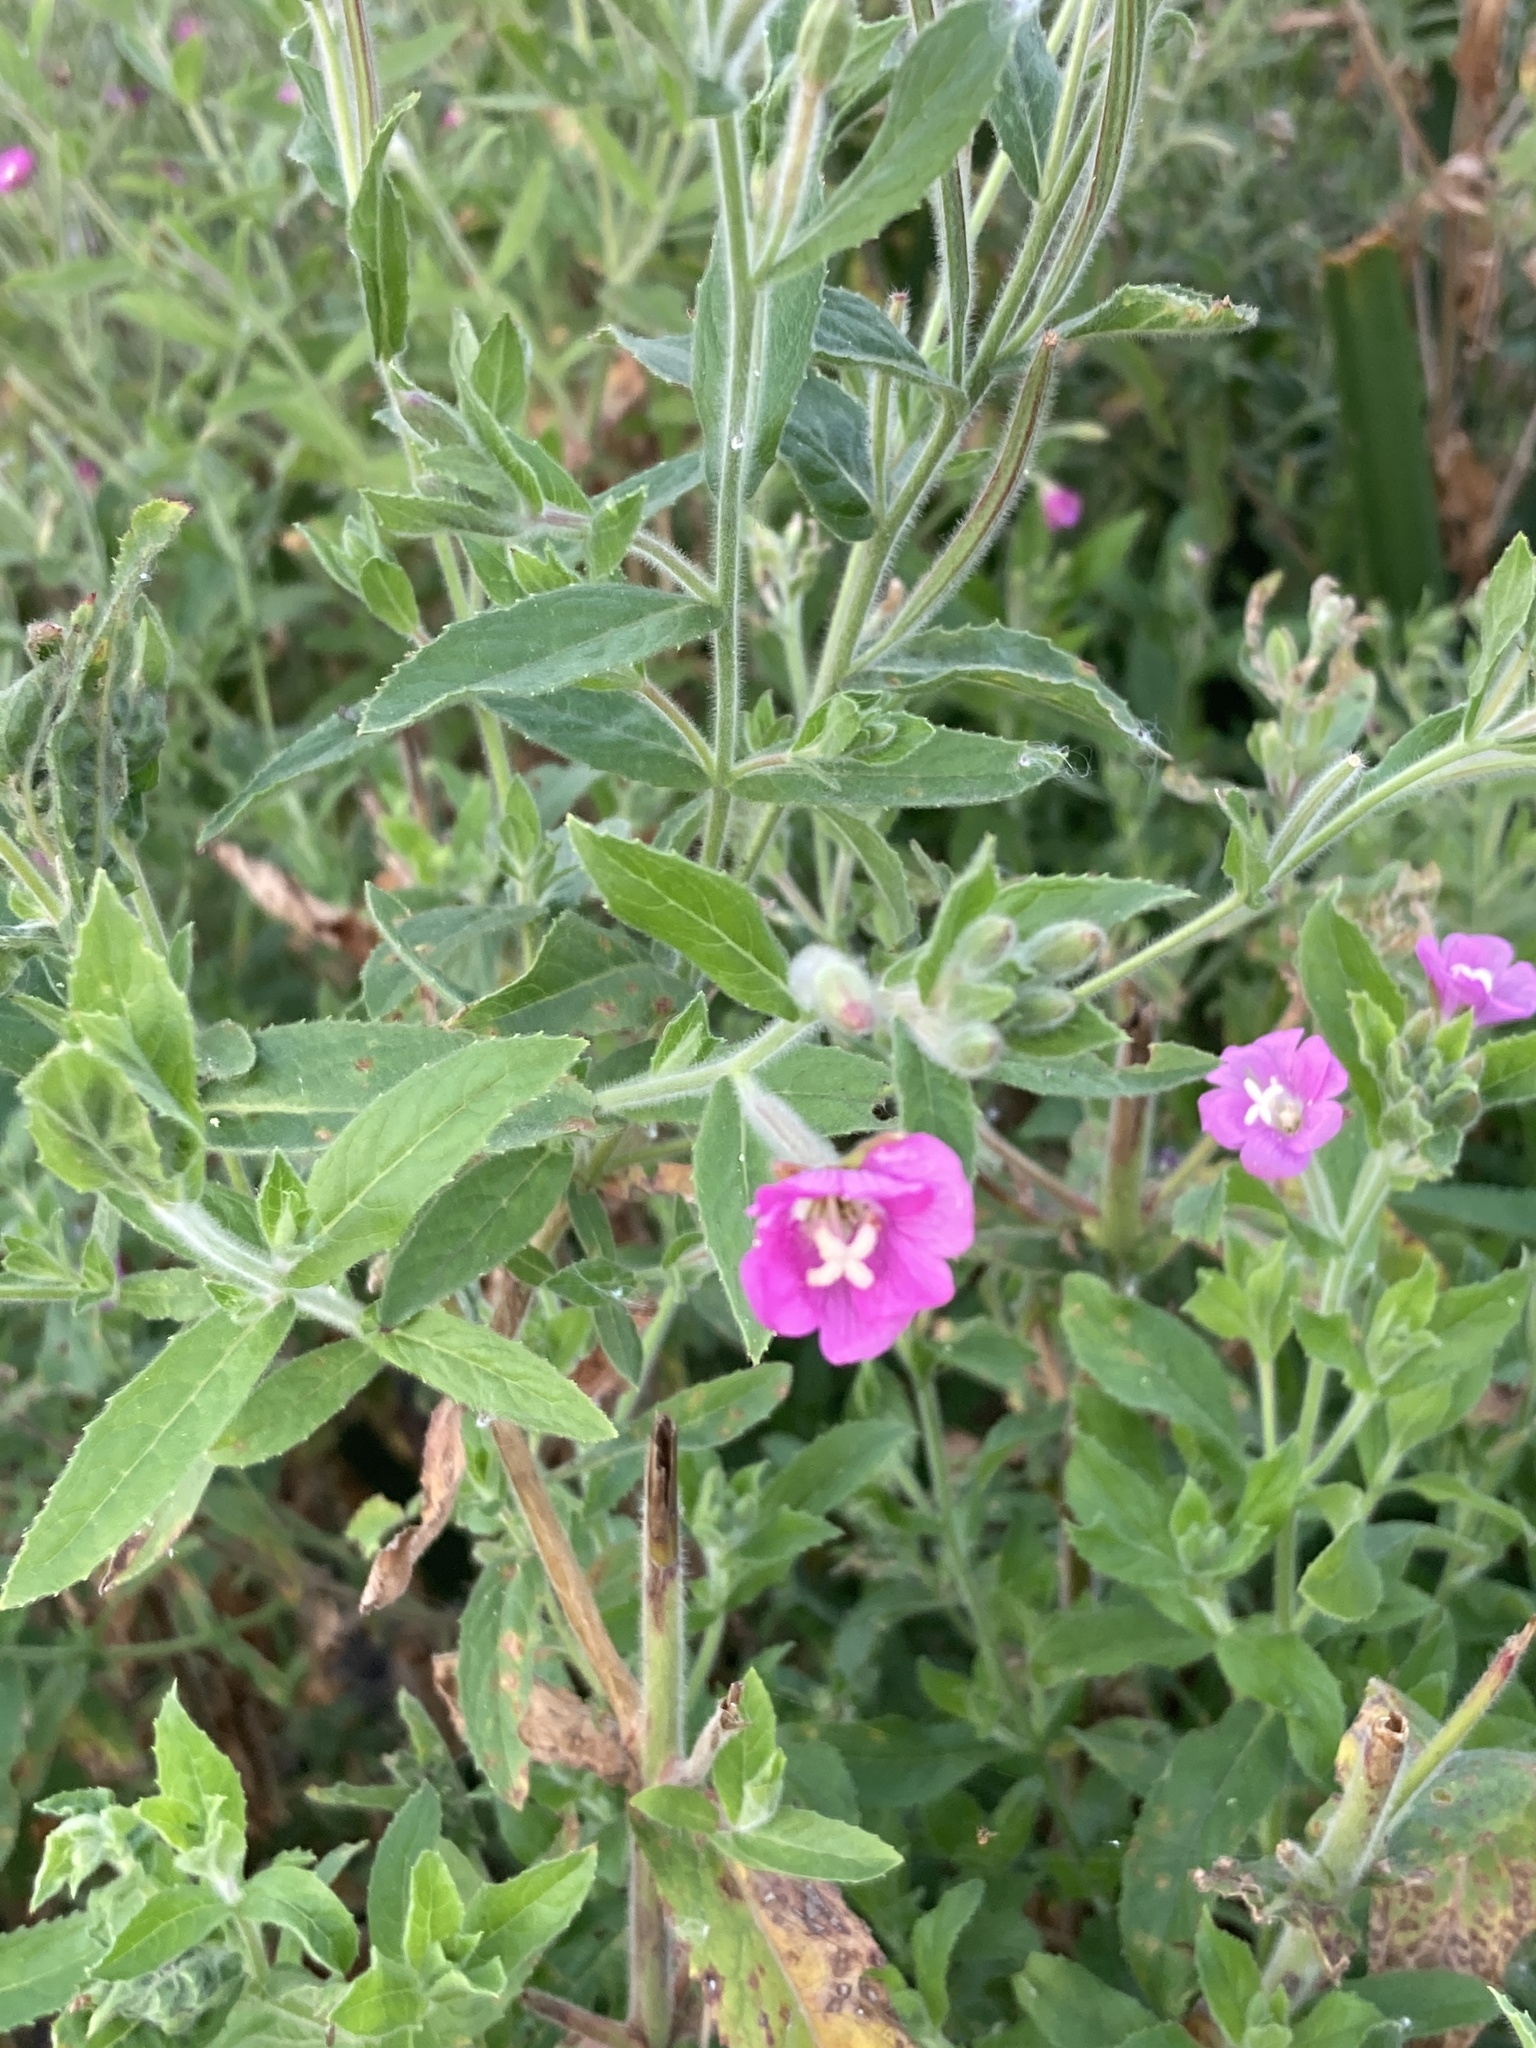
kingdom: Plantae
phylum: Tracheophyta
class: Magnoliopsida
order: Myrtales
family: Onagraceae
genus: Epilobium
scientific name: Epilobium hirsutum
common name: Great willowherb
